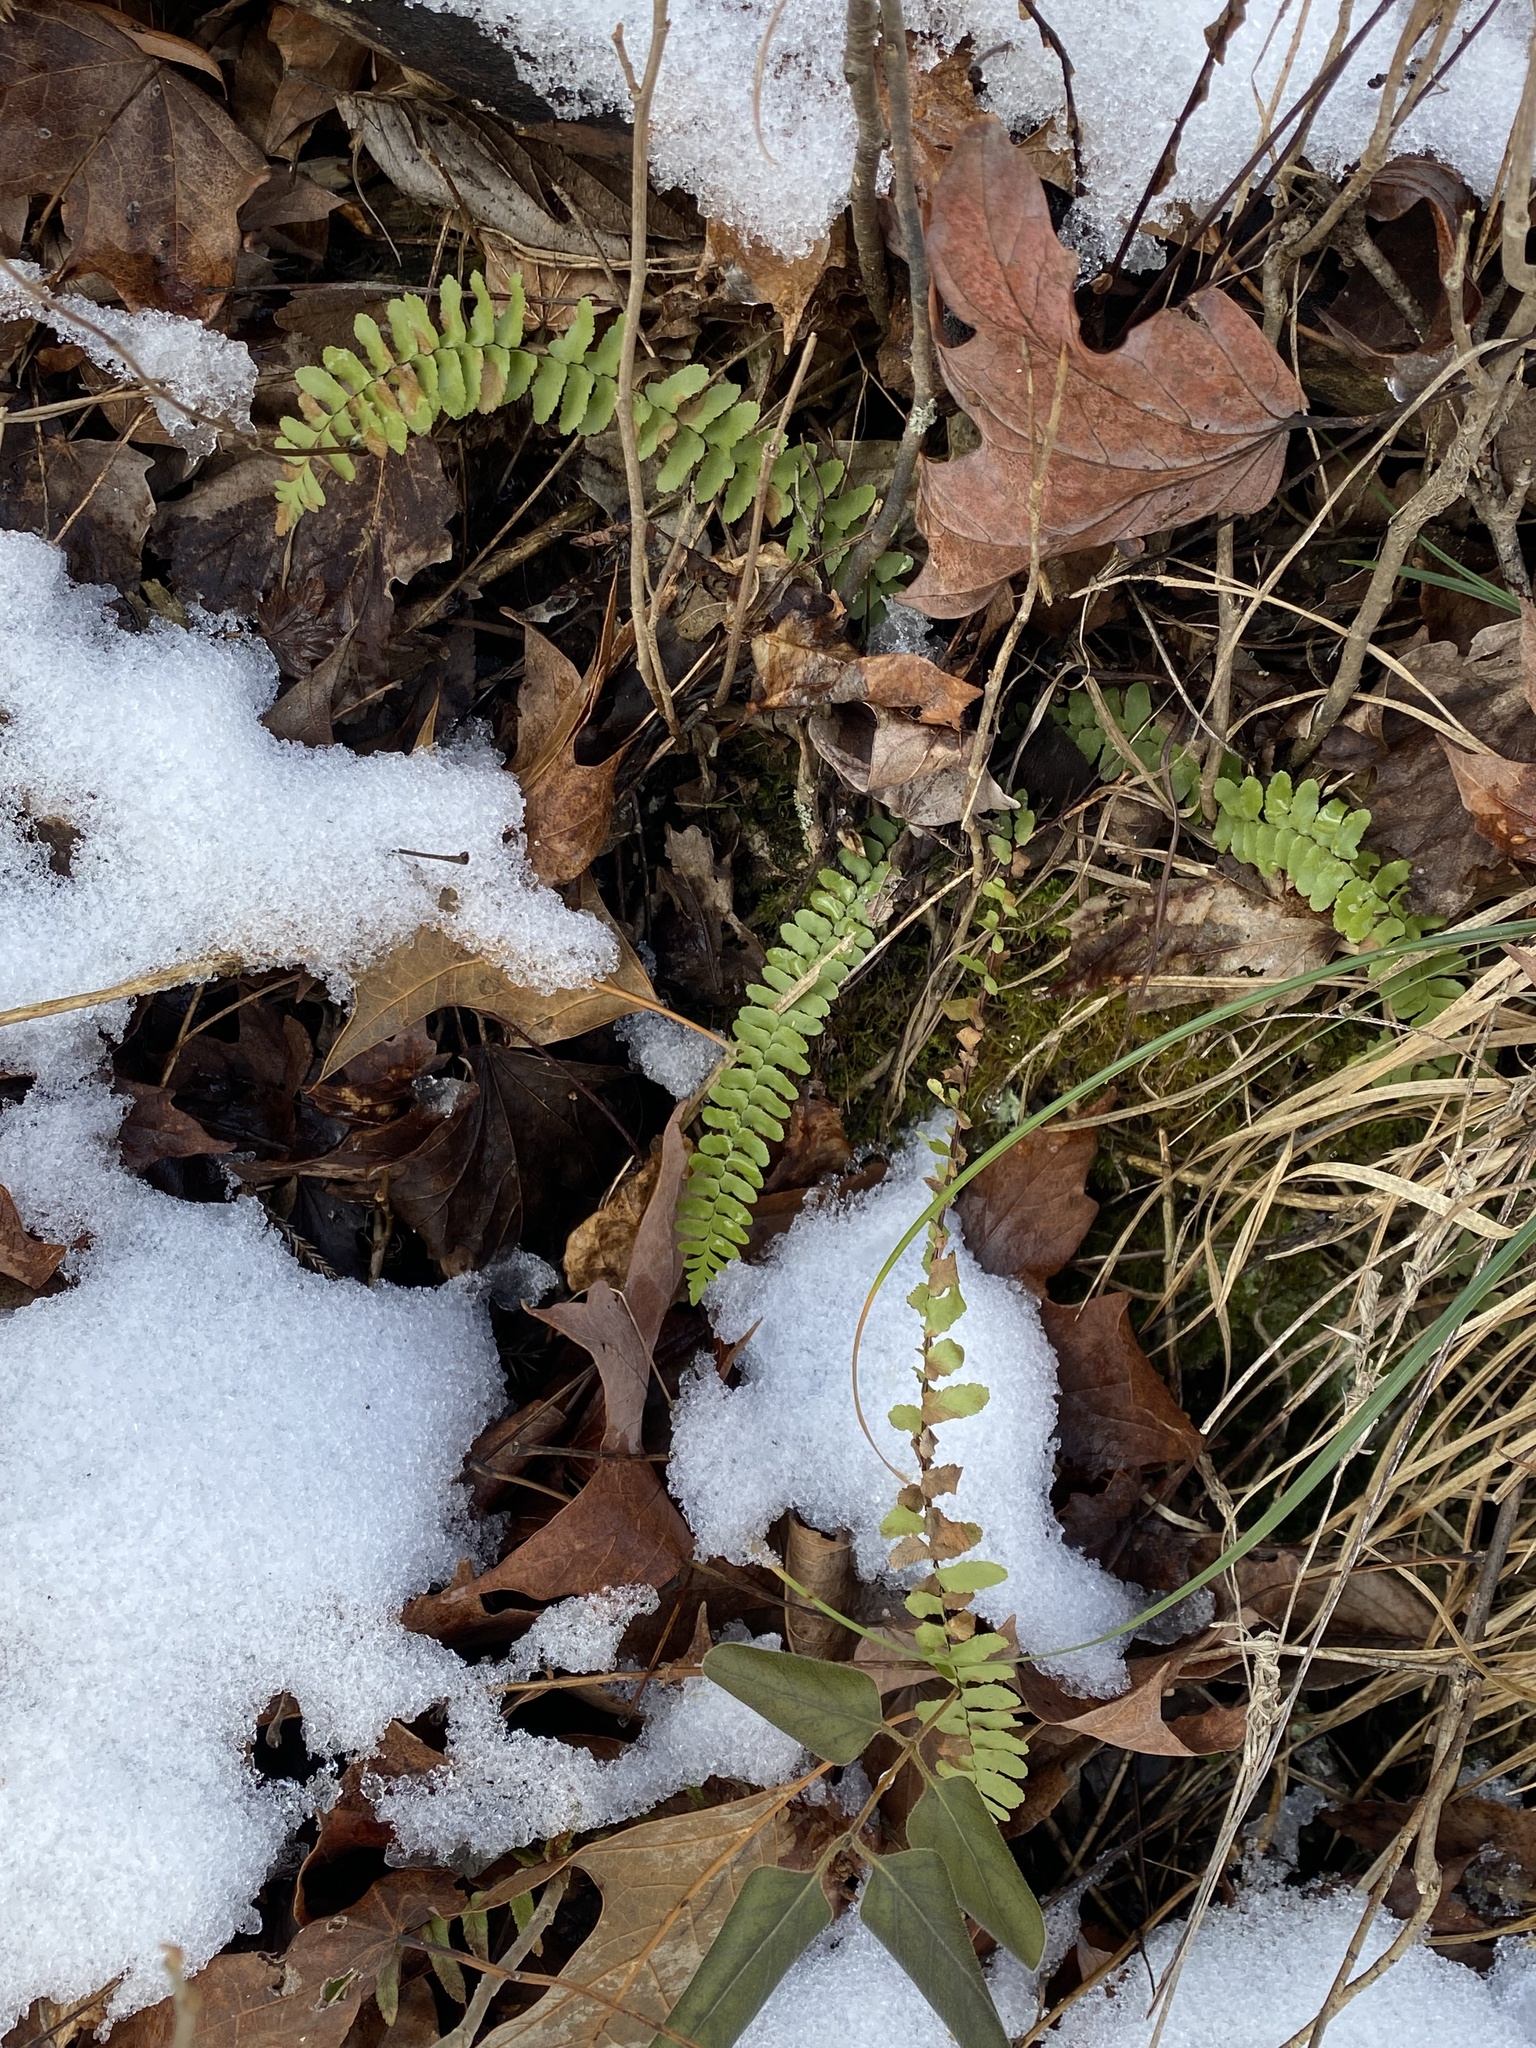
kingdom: Plantae
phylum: Tracheophyta
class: Polypodiopsida
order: Polypodiales
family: Aspleniaceae
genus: Asplenium
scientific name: Asplenium platyneuron
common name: Ebony spleenwort
